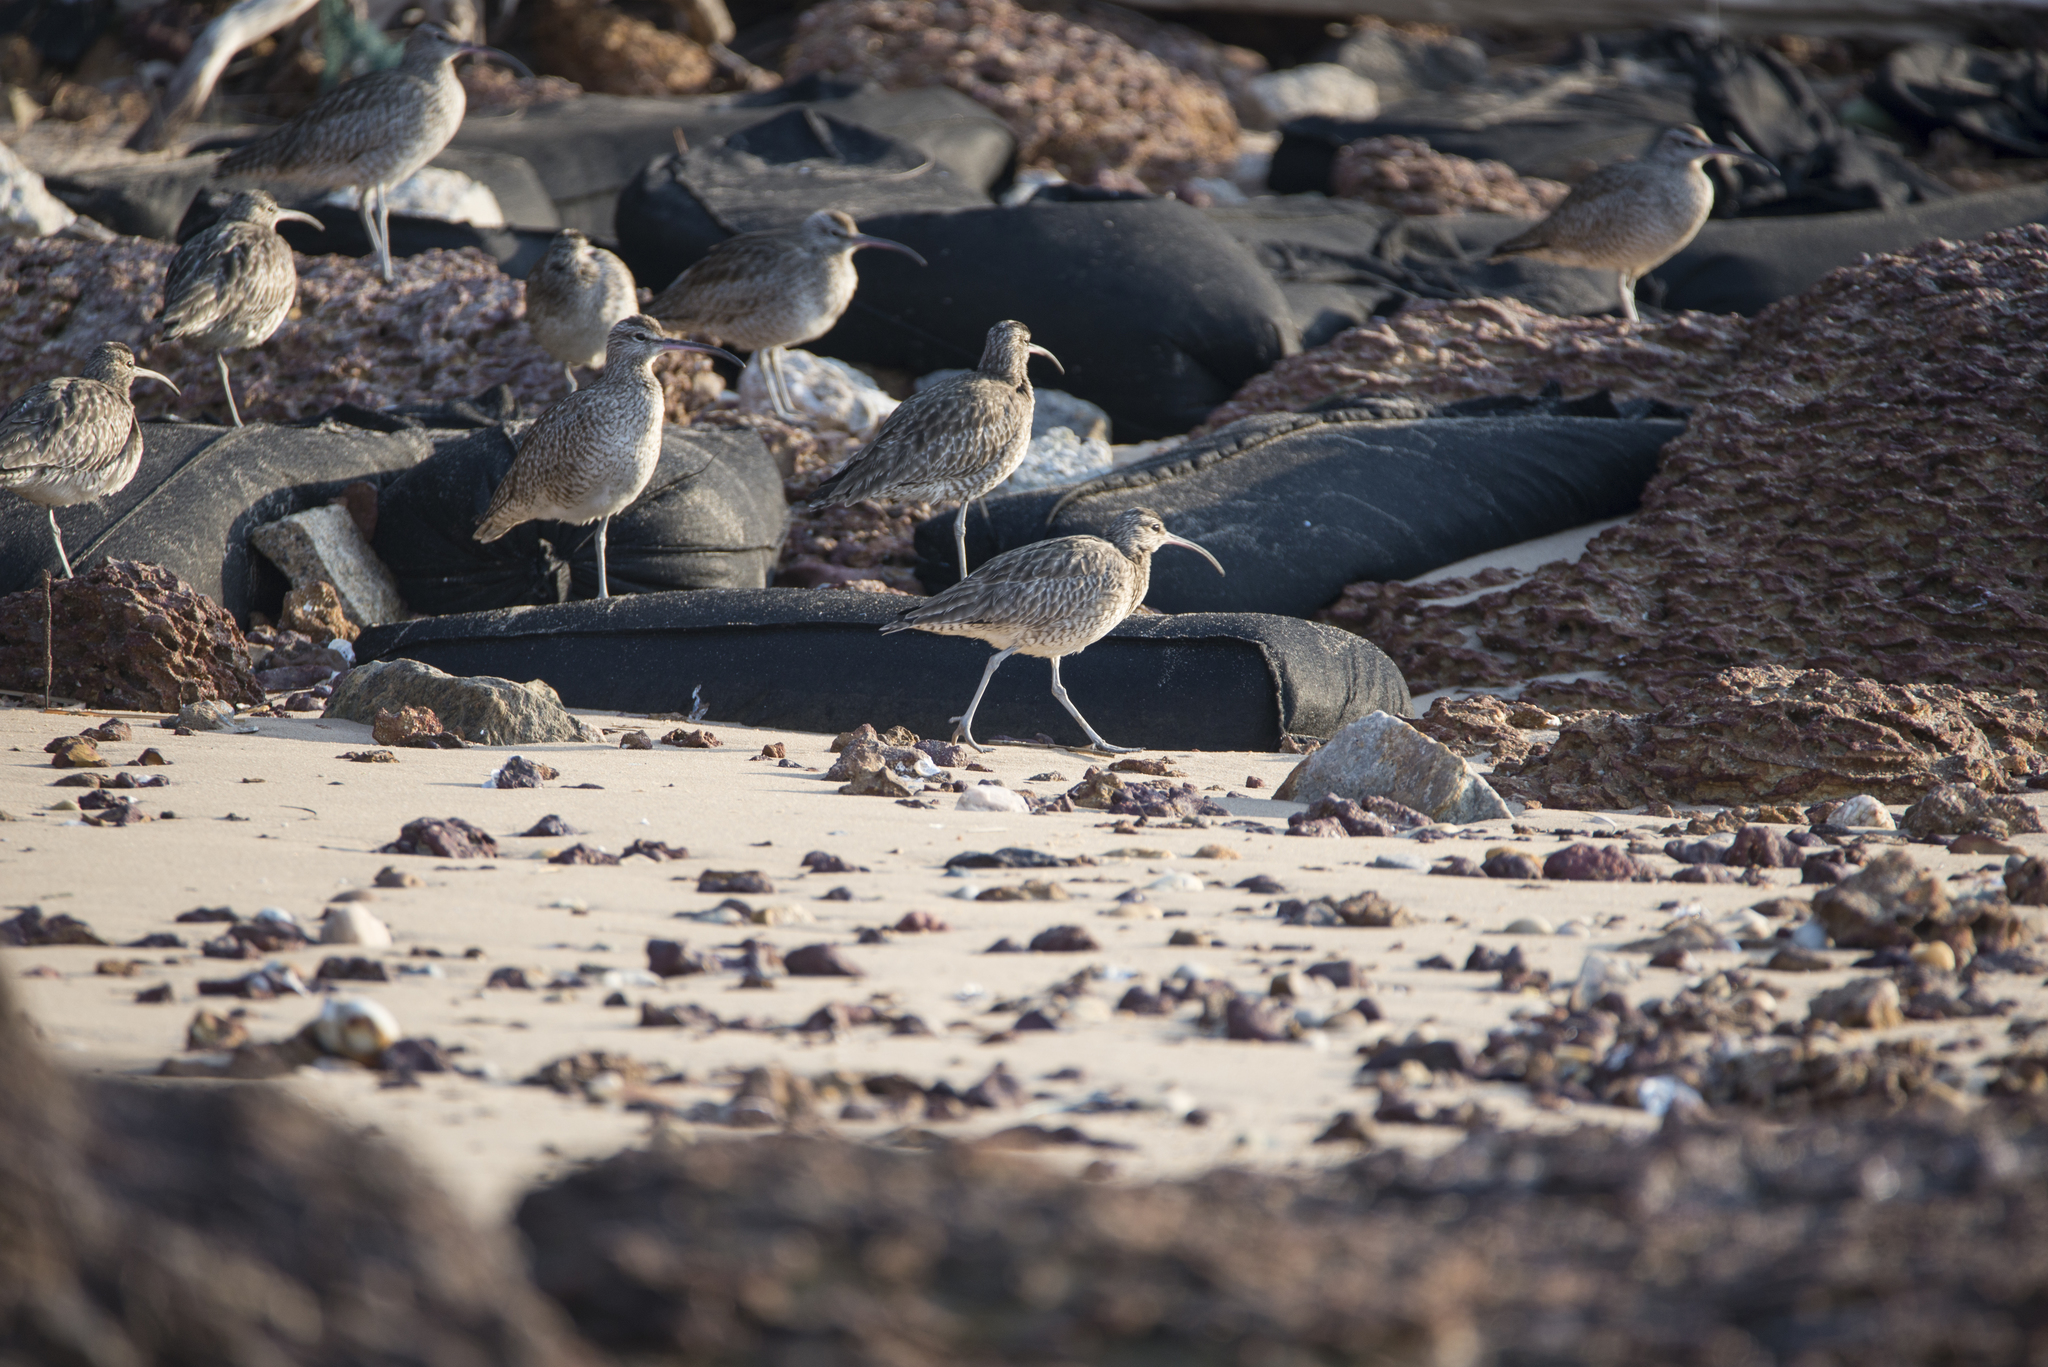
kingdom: Animalia
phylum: Chordata
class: Aves
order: Charadriiformes
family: Scolopacidae
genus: Numenius
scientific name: Numenius phaeopus
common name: Whimbrel
